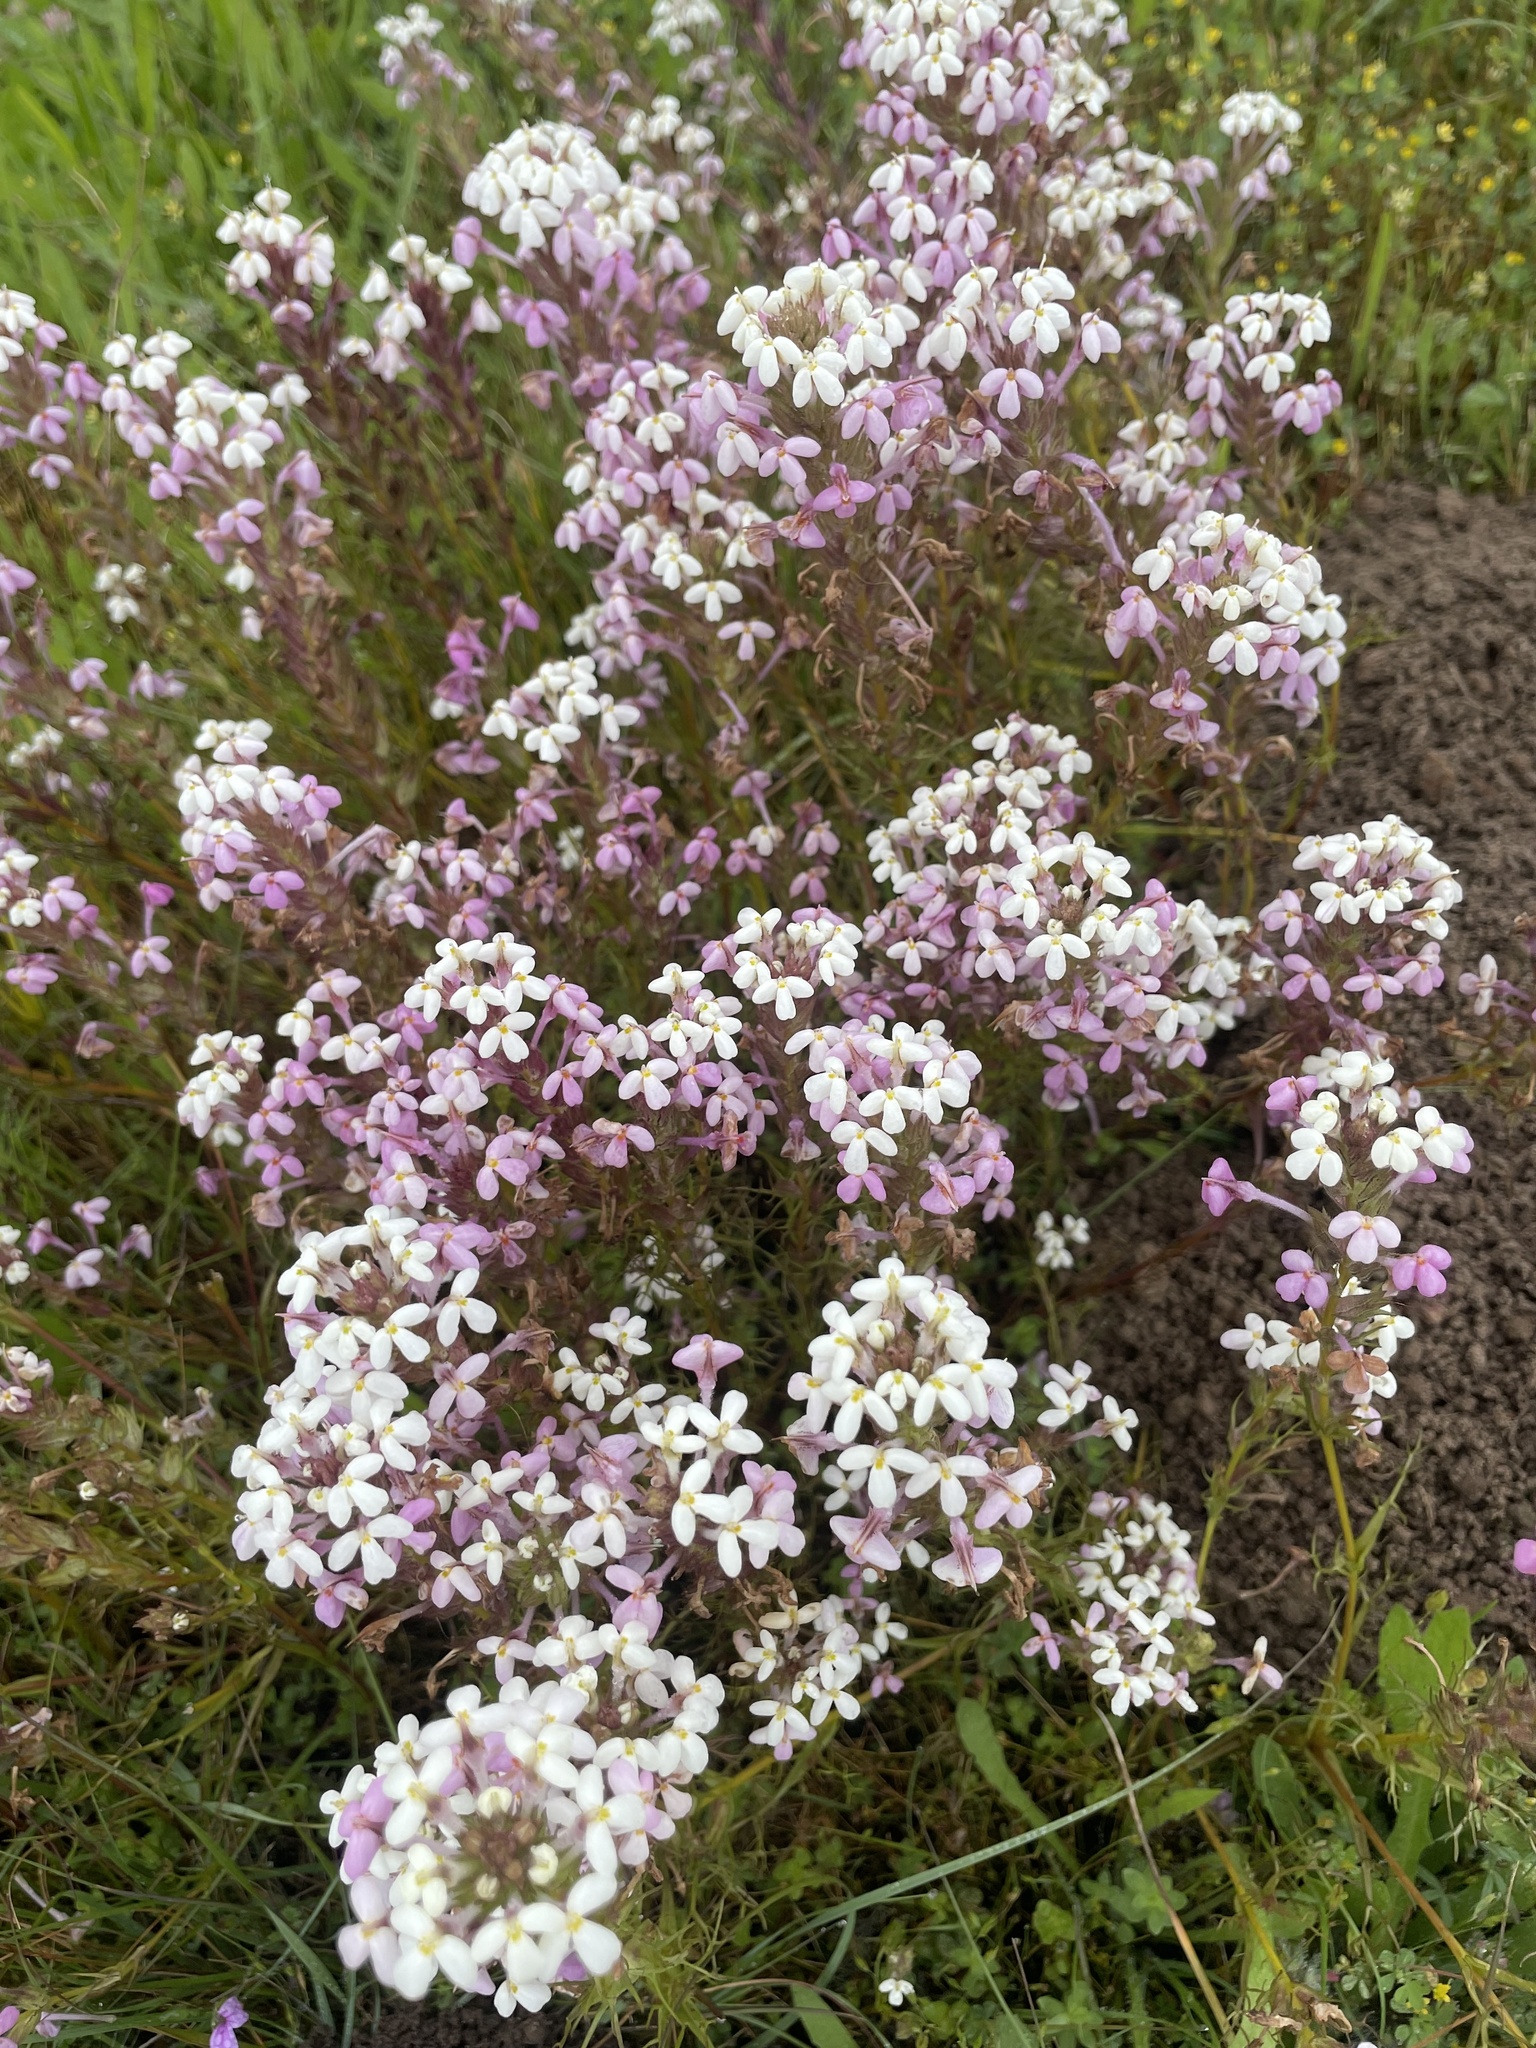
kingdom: Plantae
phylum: Tracheophyta
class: Magnoliopsida
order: Lamiales
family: Orobanchaceae
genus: Triphysaria
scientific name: Triphysaria versicolor
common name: Bearded false owl-clover
